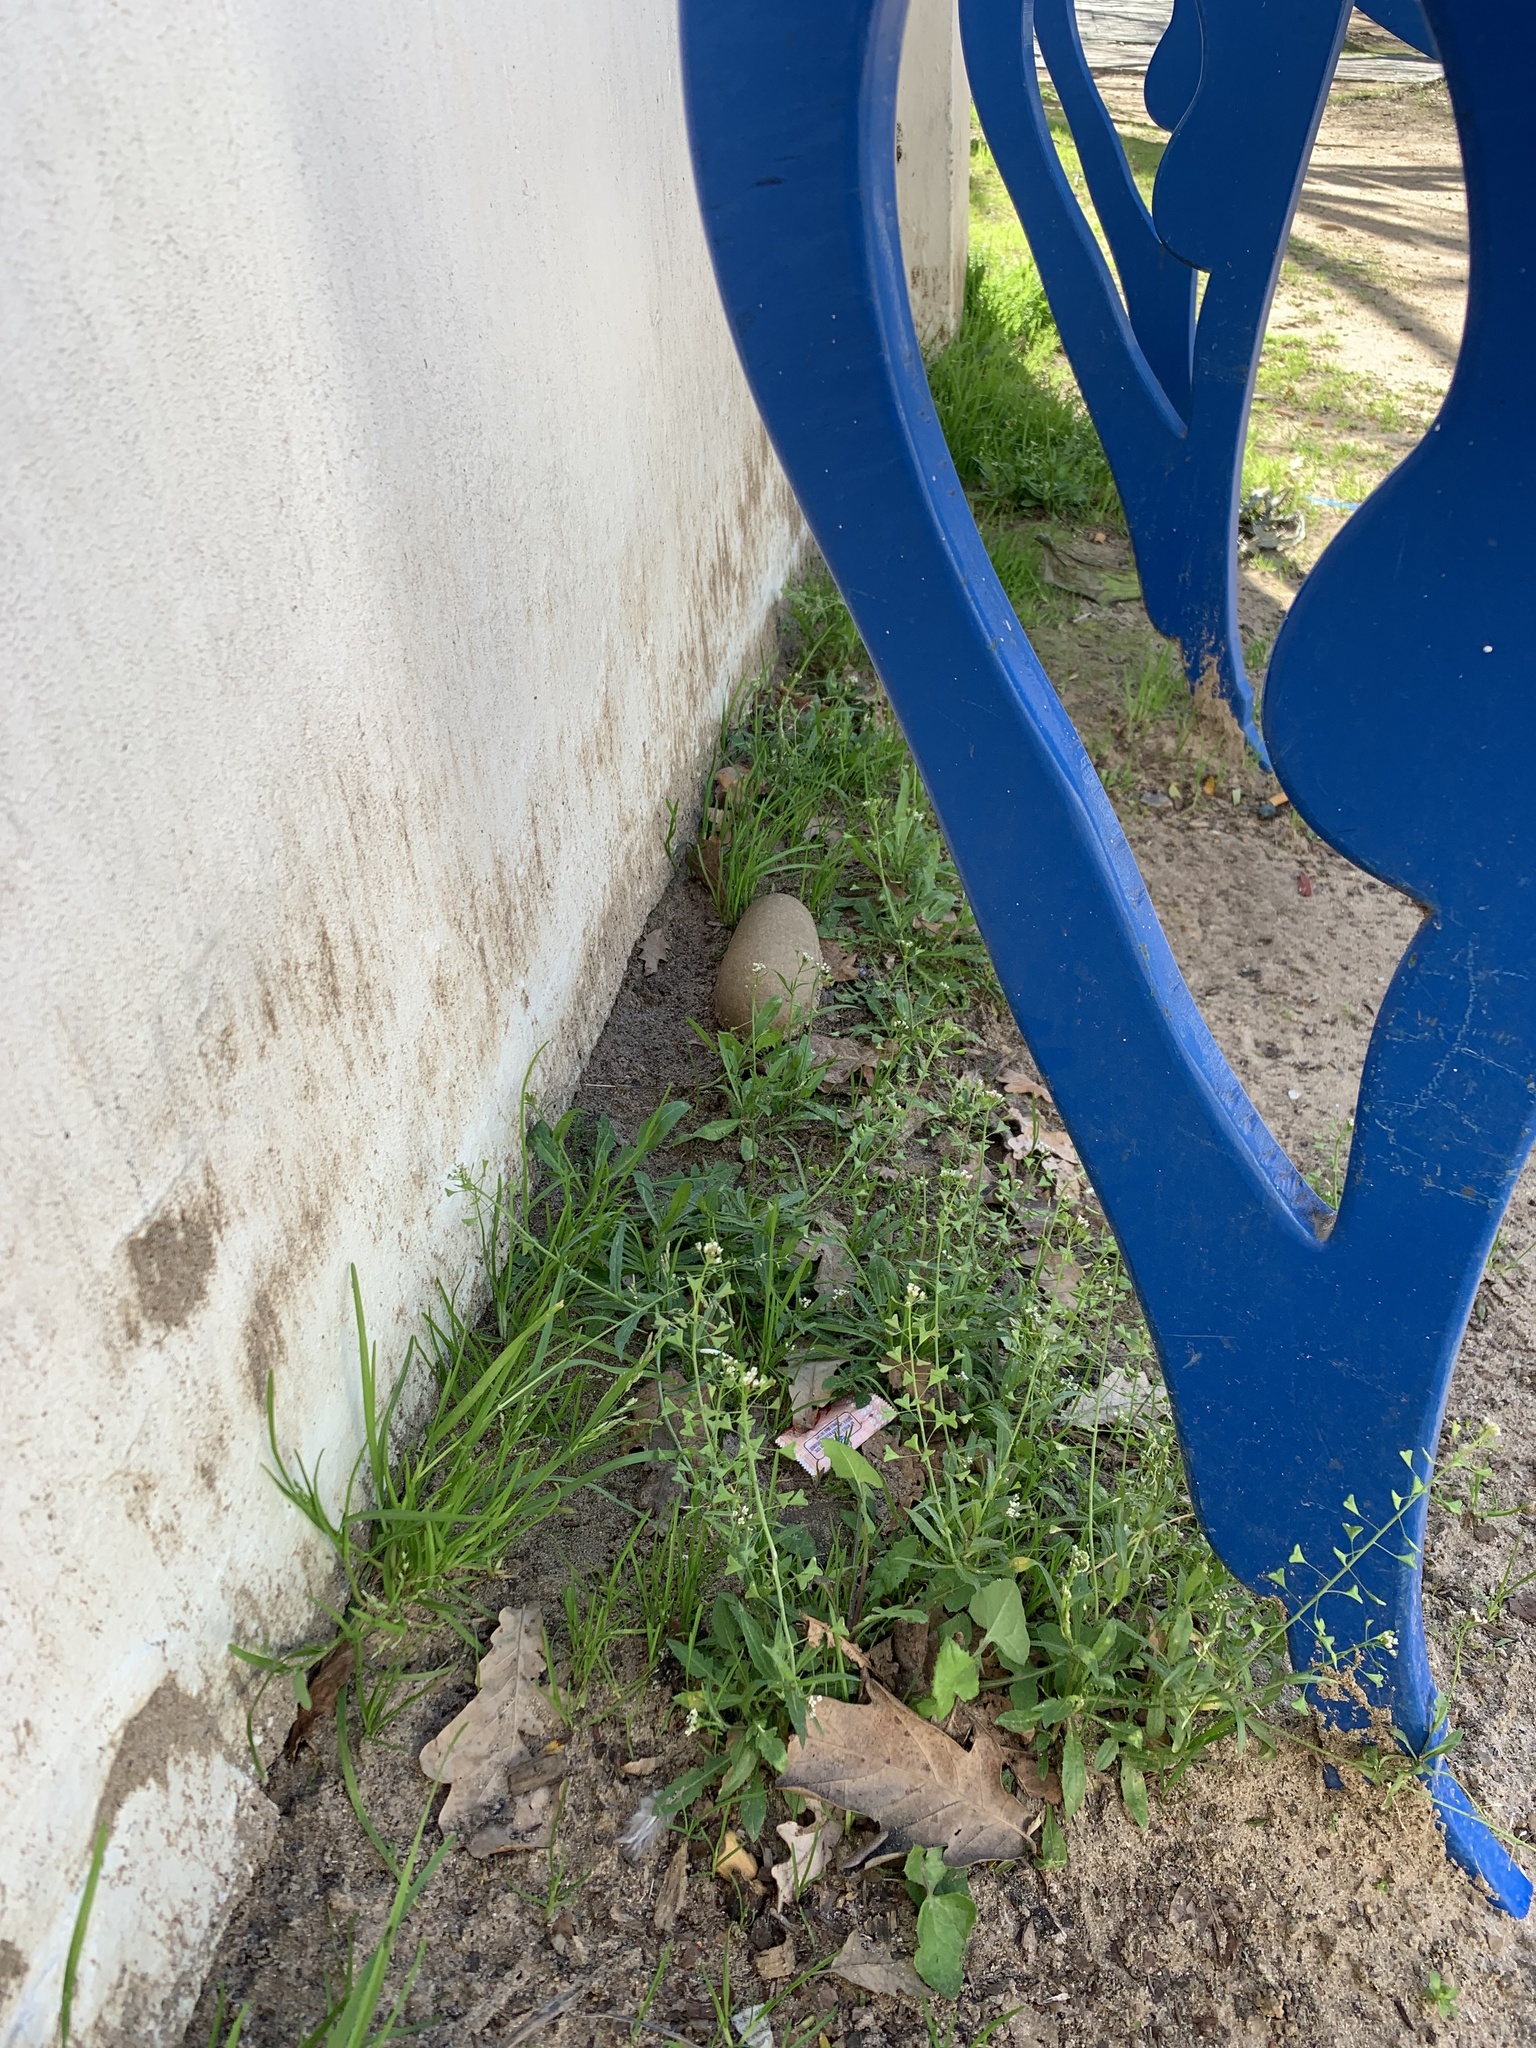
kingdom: Plantae
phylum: Tracheophyta
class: Magnoliopsida
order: Brassicales
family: Brassicaceae
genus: Capsella
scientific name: Capsella bursa-pastoris
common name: Shepherd's purse
